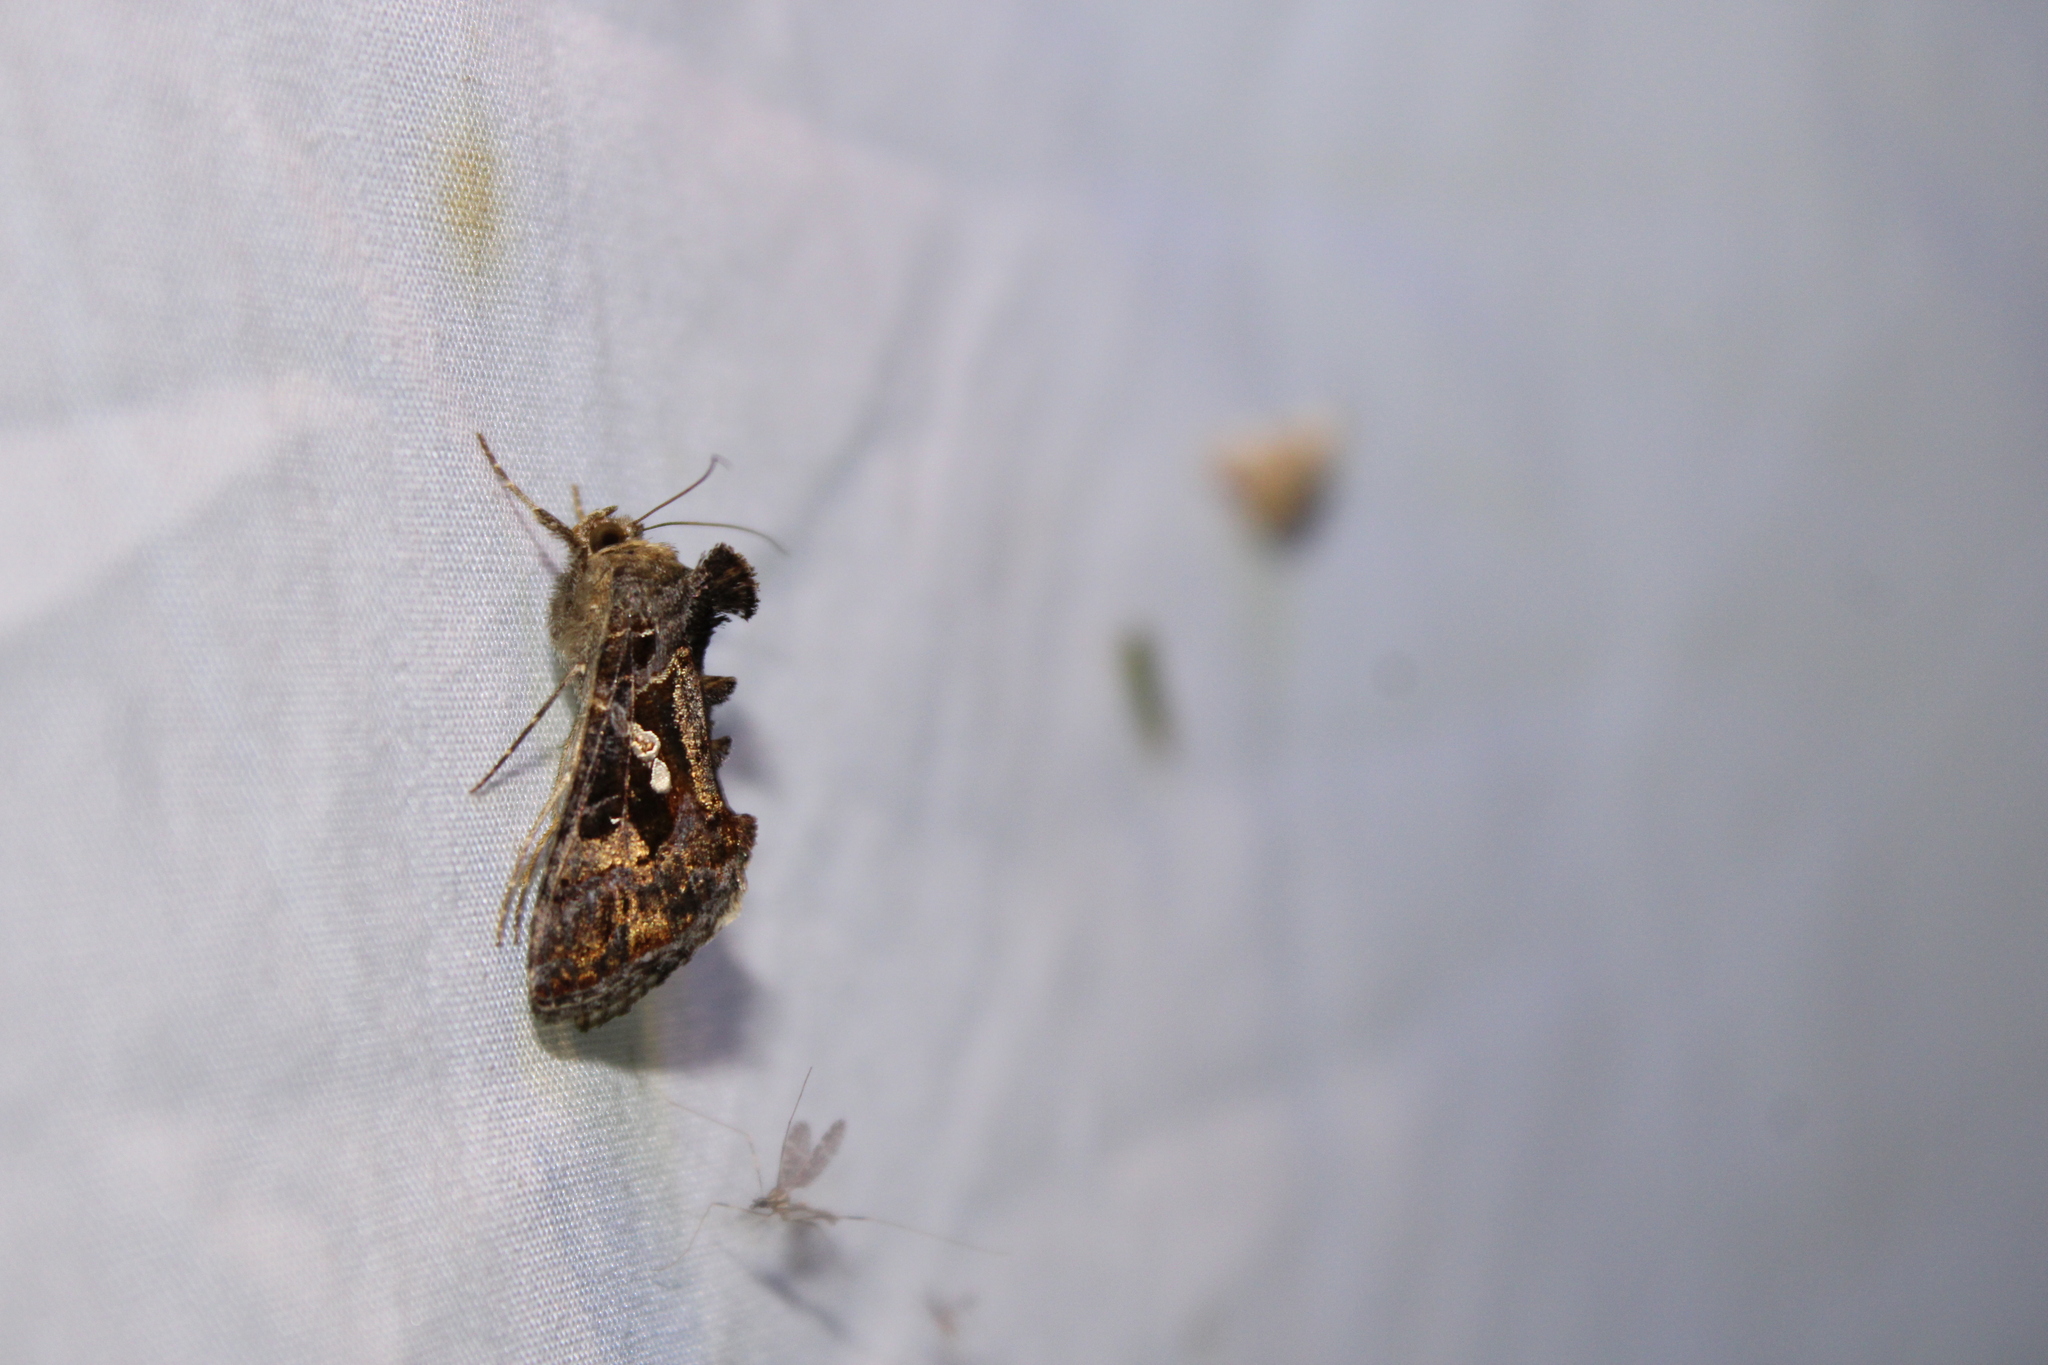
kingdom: Animalia
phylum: Arthropoda
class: Insecta
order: Lepidoptera
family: Noctuidae
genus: Chrysodeixis
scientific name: Chrysodeixis includens
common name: Cutworm moth
